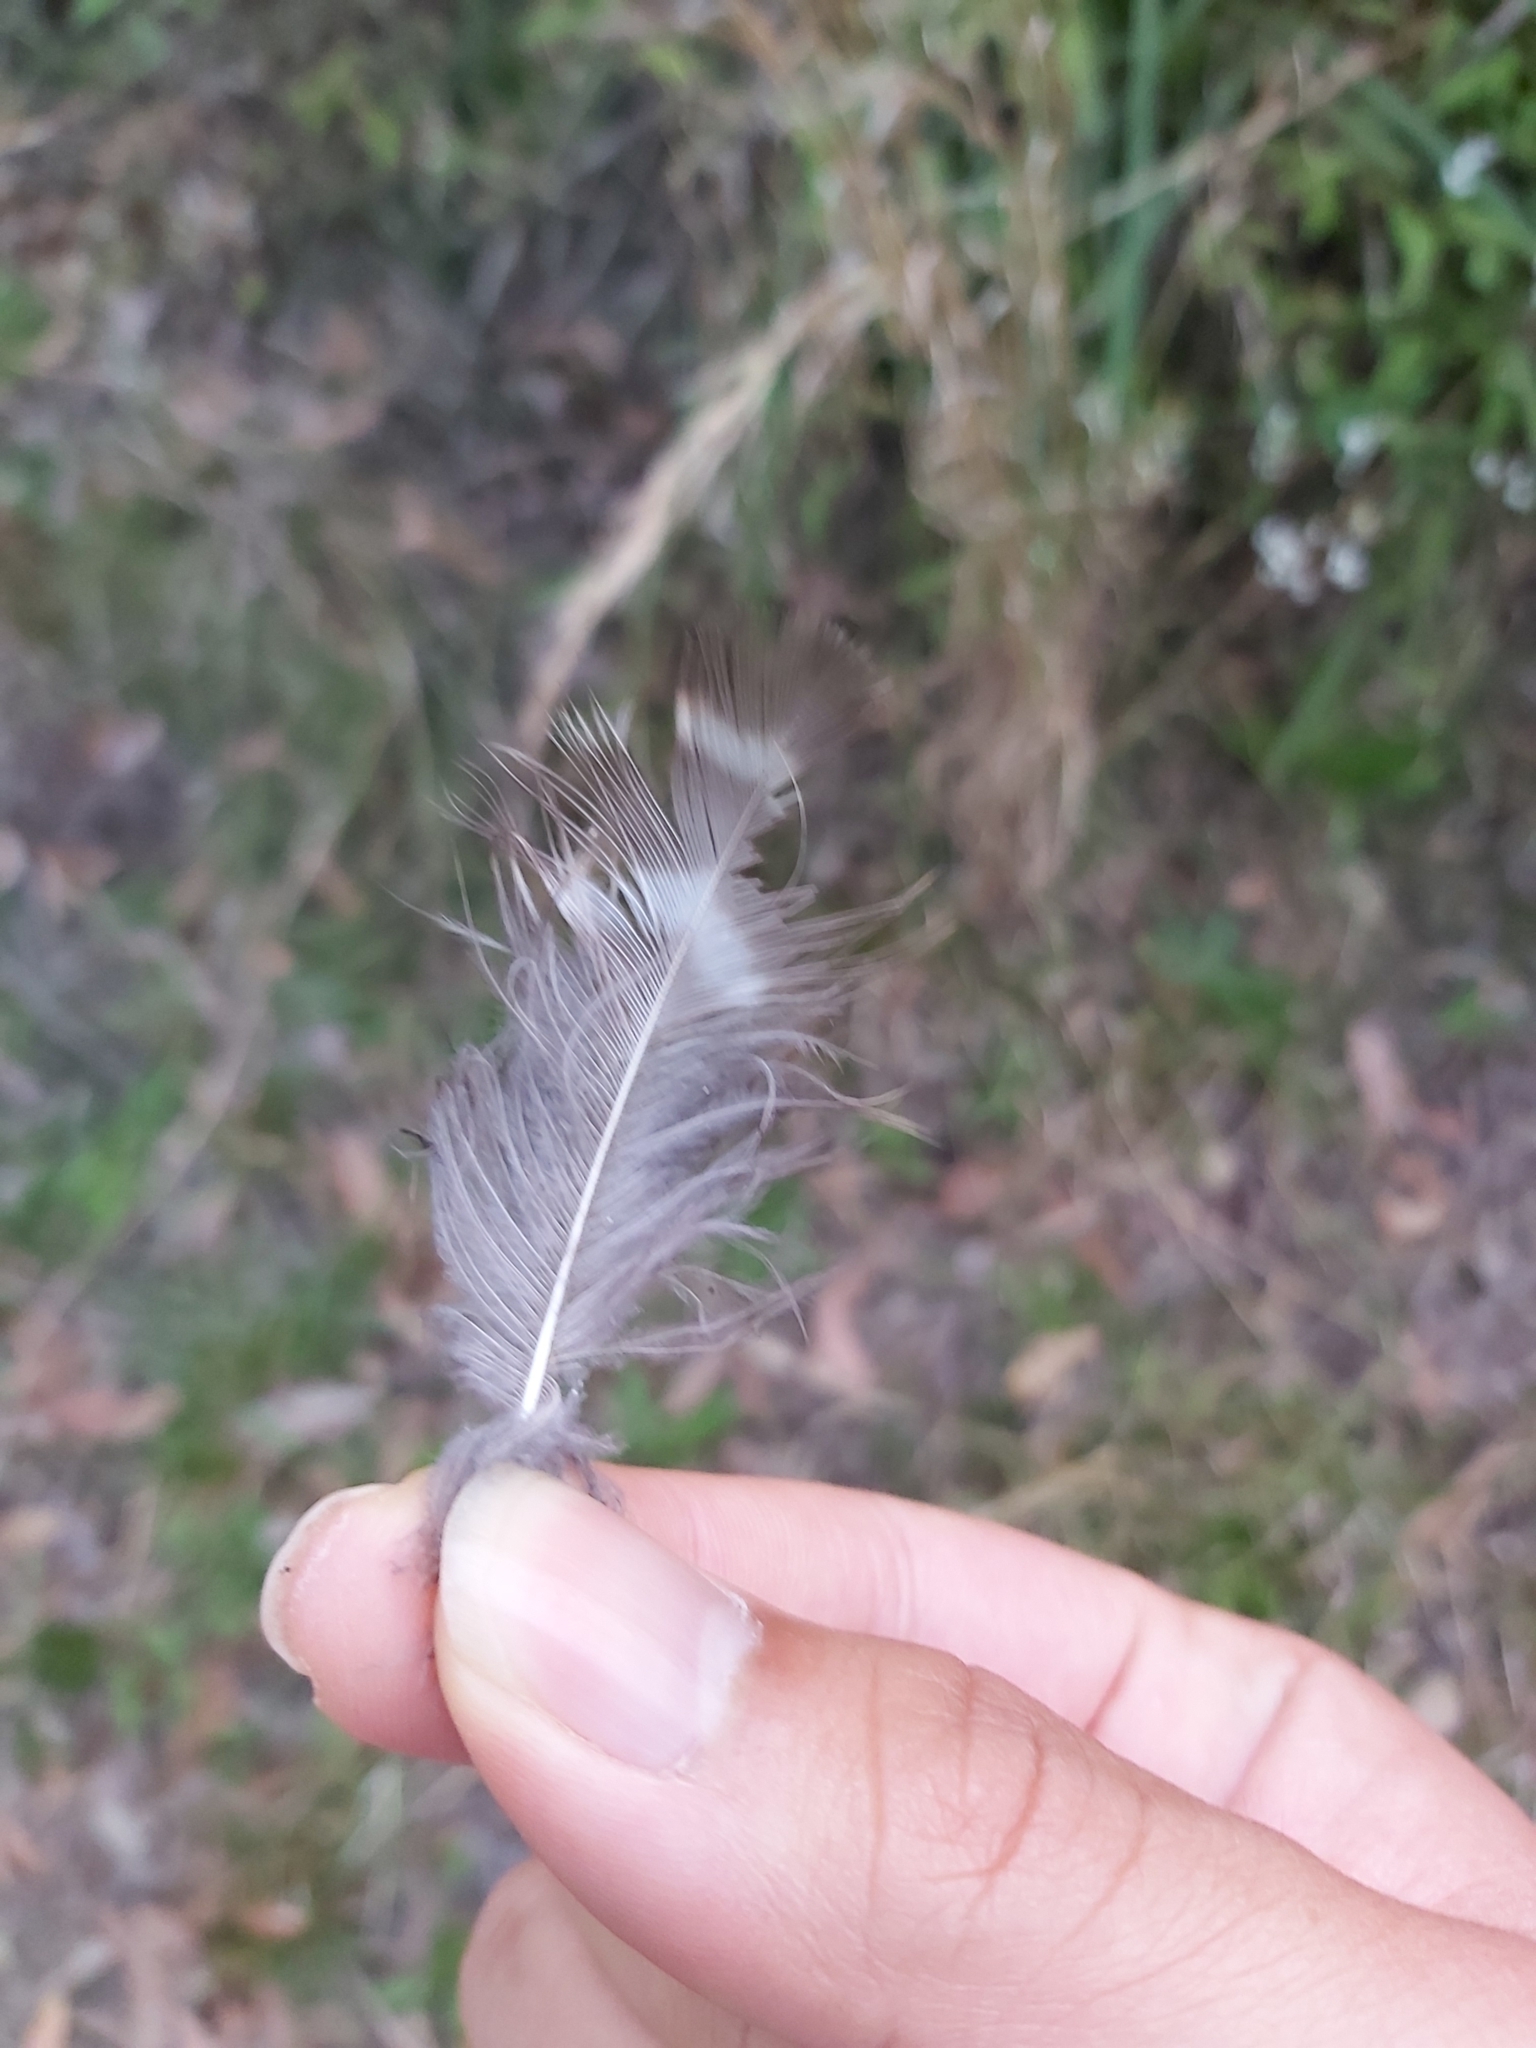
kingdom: Animalia
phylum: Chordata
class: Aves
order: Strigiformes
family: Strigidae
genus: Ninox
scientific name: Ninox strenua
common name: Powerful owl
